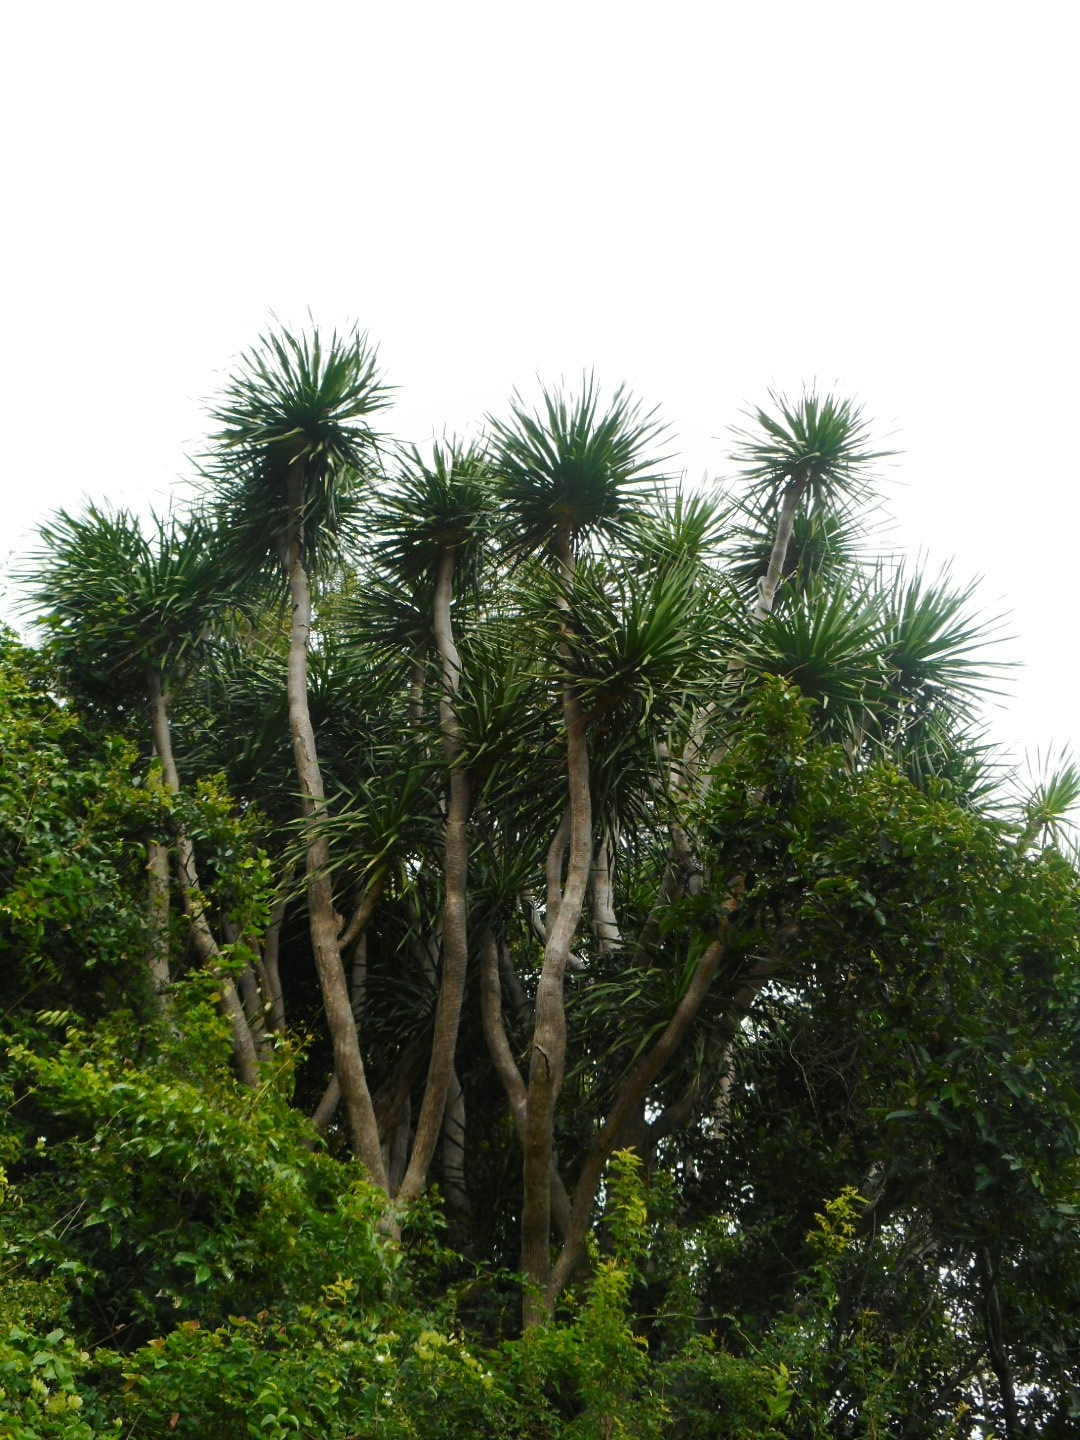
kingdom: Plantae
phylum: Tracheophyta
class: Liliopsida
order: Asparagales
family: Asparagaceae
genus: Dracaena
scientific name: Dracaena cambodiana
